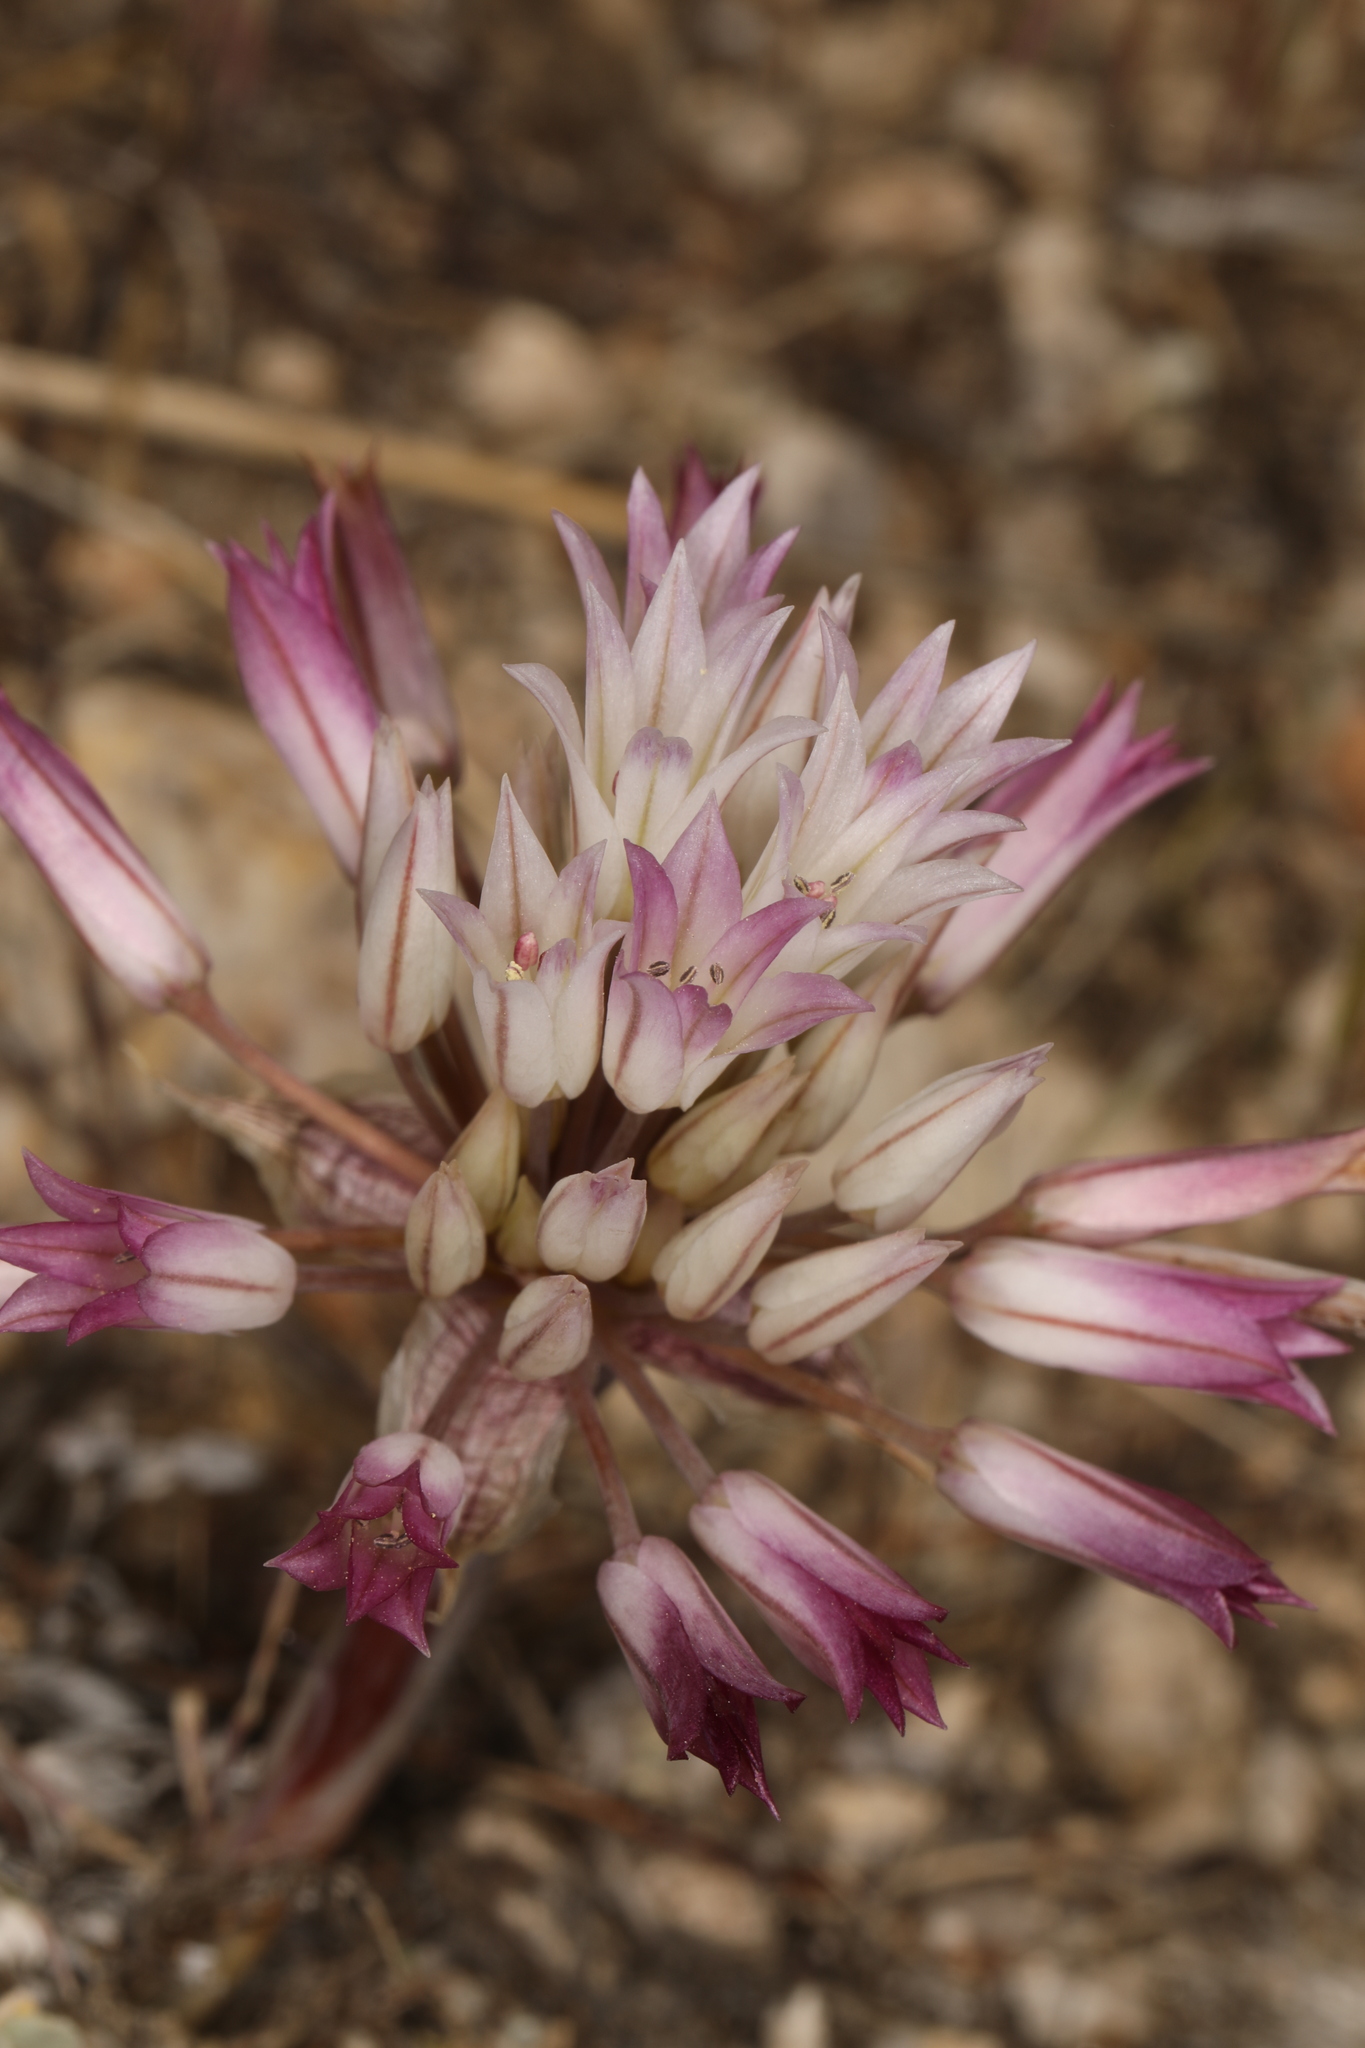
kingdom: Plantae
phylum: Tracheophyta
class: Liliopsida
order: Asparagales
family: Amaryllidaceae
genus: Allium
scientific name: Allium atrorubens
